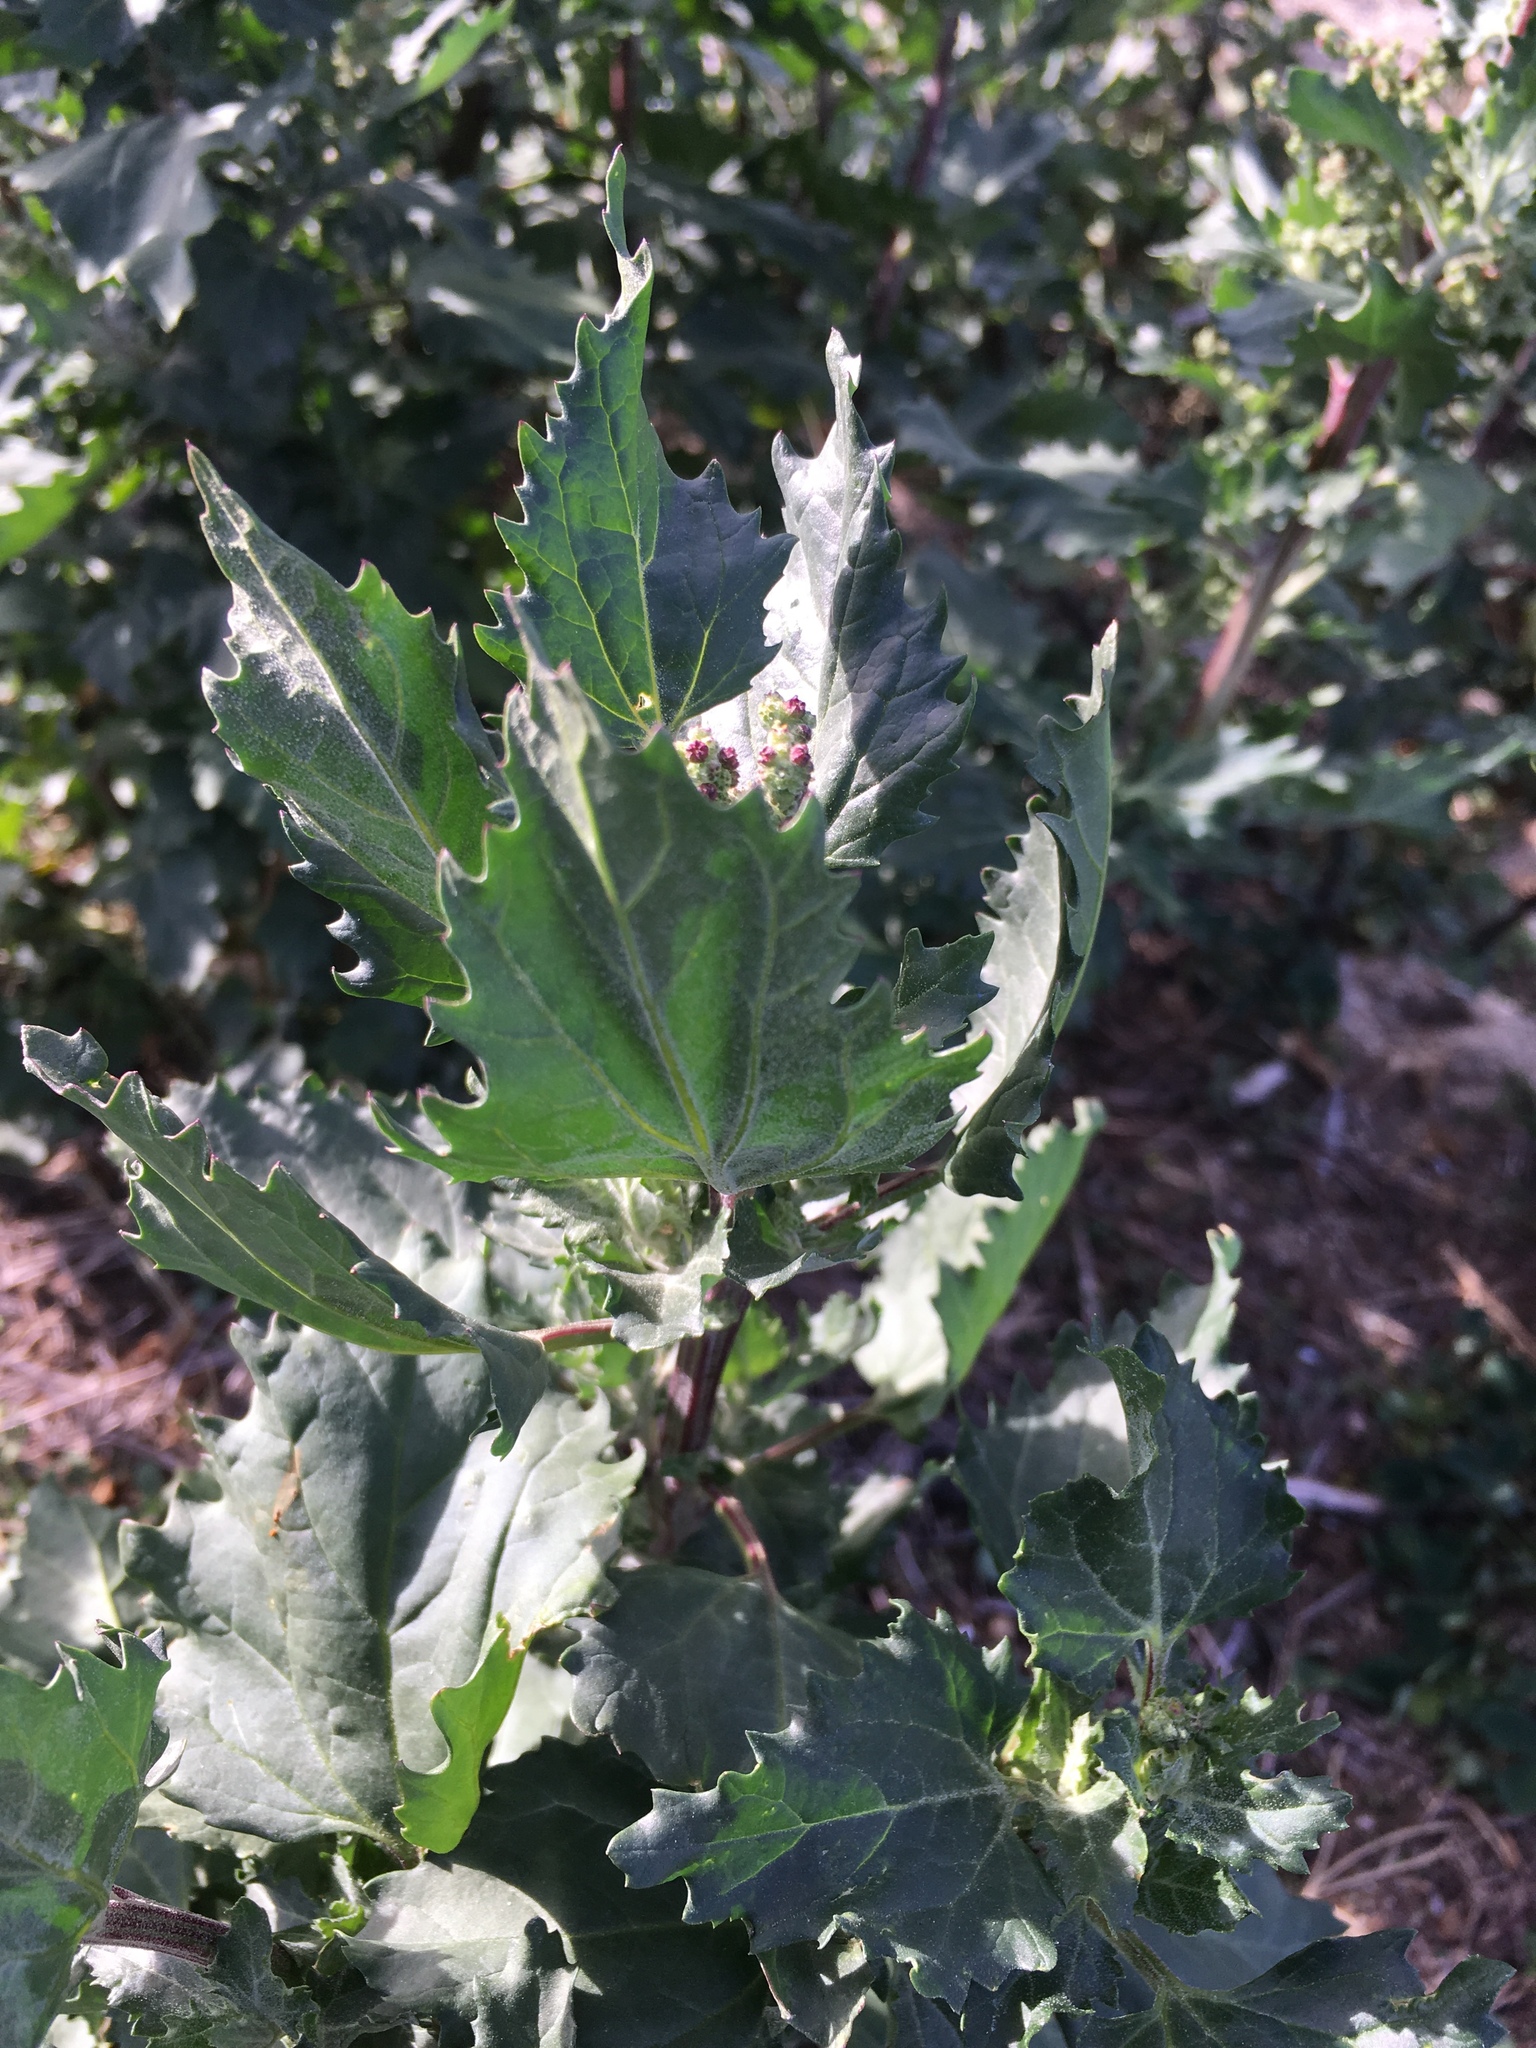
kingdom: Plantae
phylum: Tracheophyta
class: Magnoliopsida
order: Caryophyllales
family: Amaranthaceae
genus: Chenopodiastrum
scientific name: Chenopodiastrum murale
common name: Sowbane
